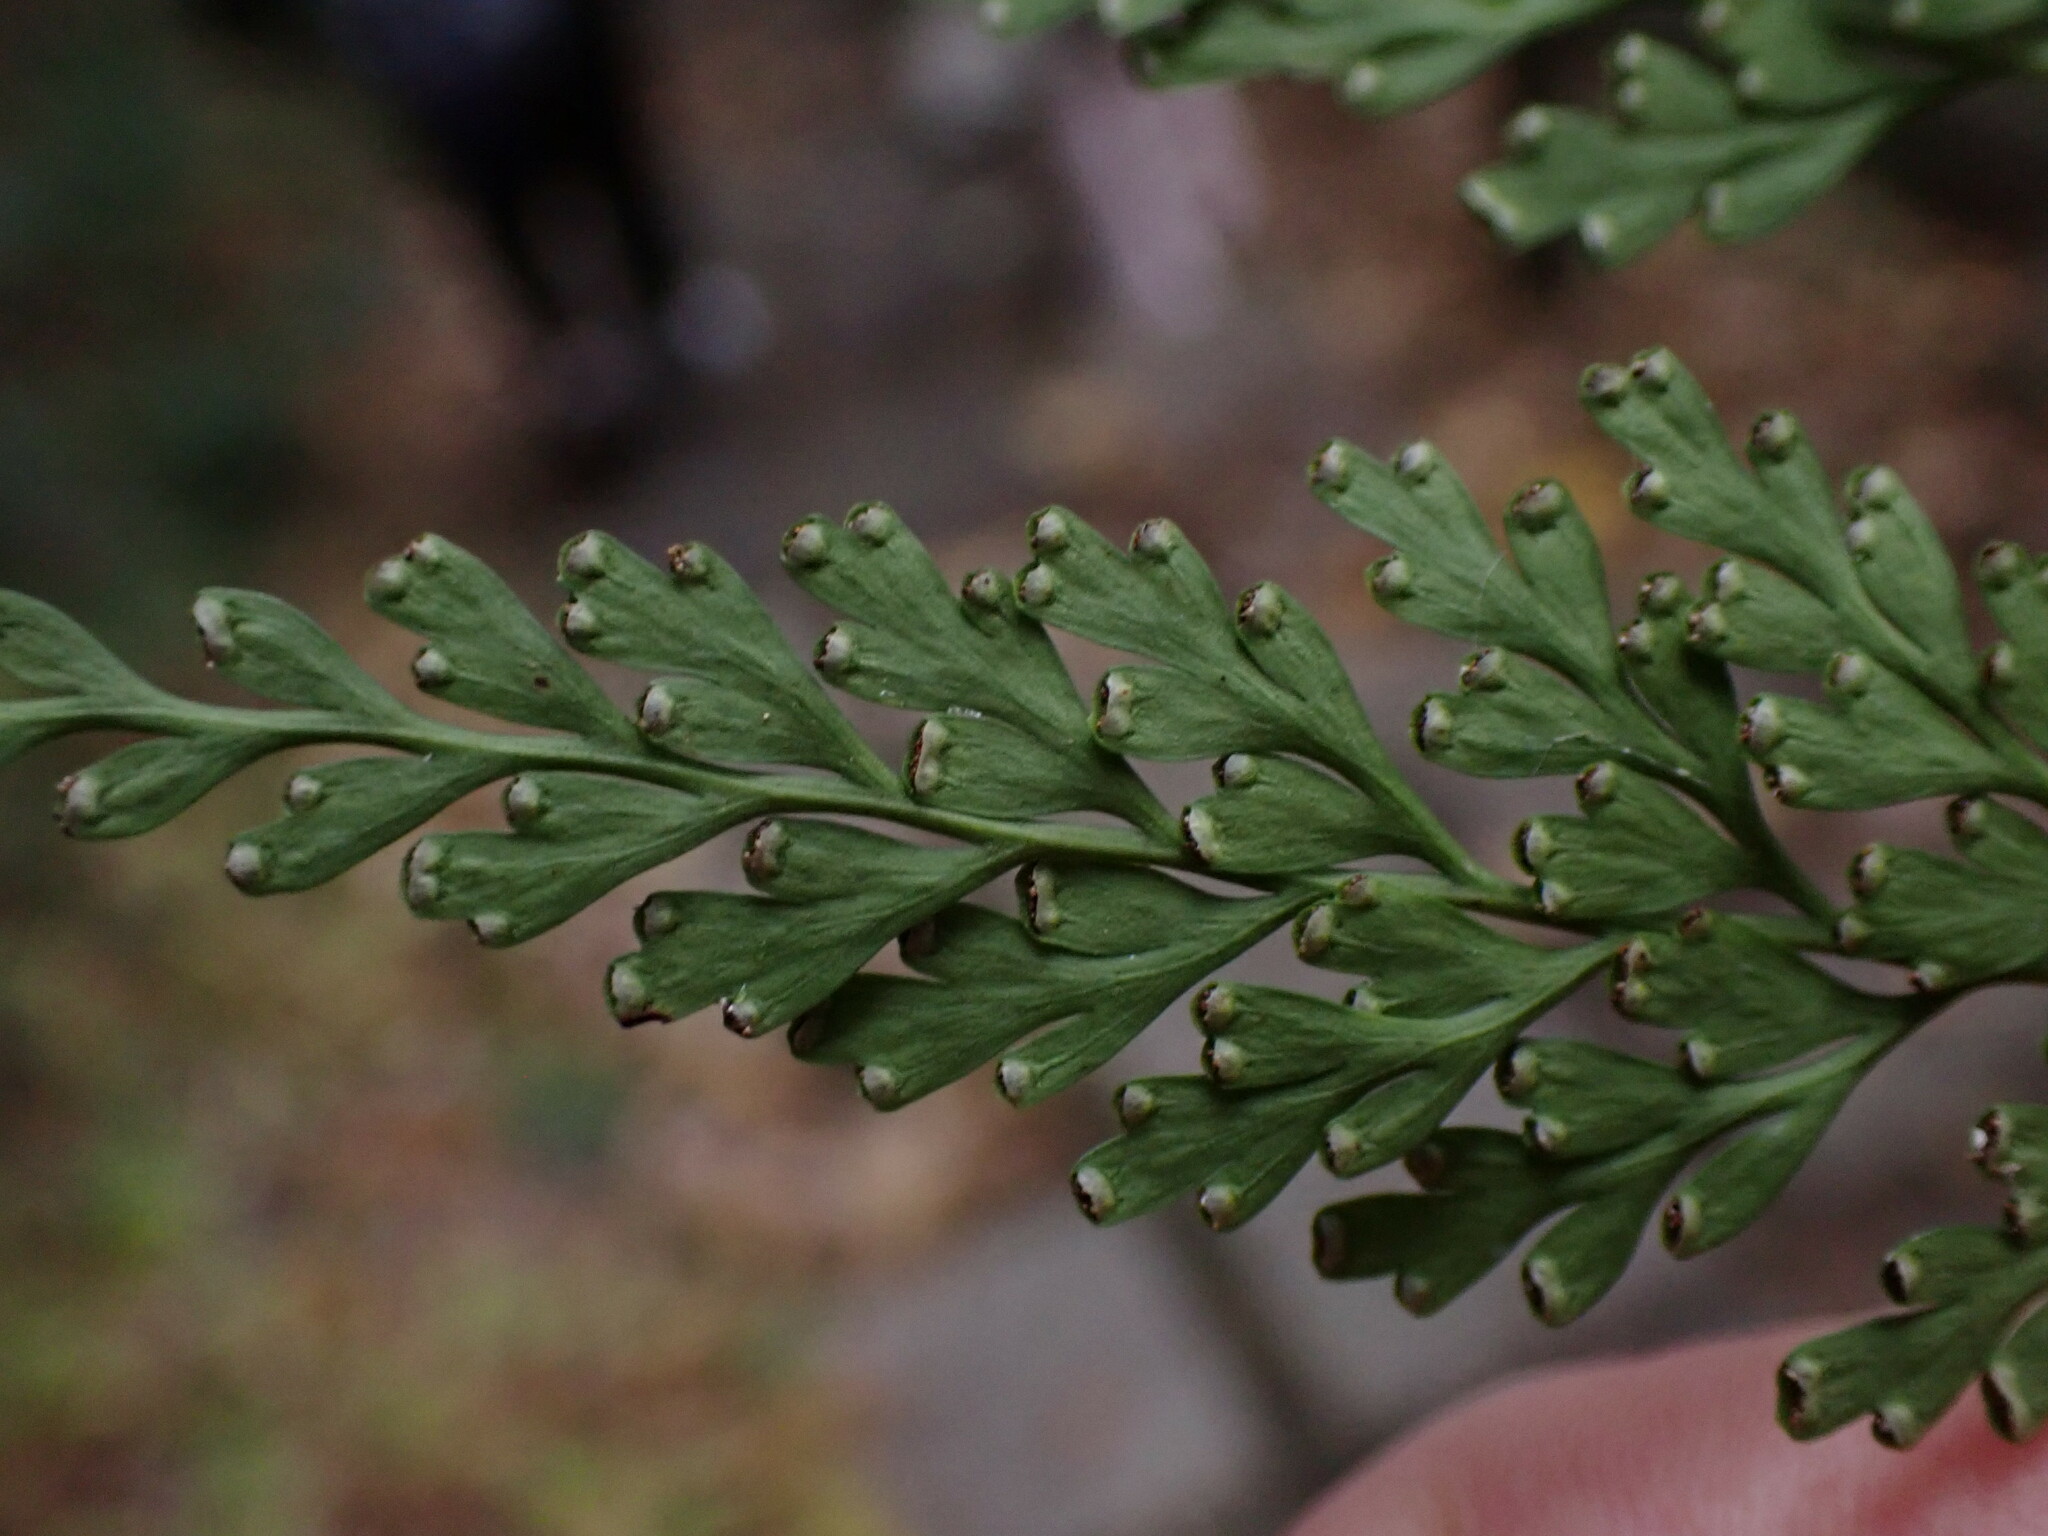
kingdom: Plantae
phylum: Tracheophyta
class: Polypodiopsida
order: Polypodiales
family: Lindsaeaceae
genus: Odontosoria
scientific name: Odontosoria chinensis
